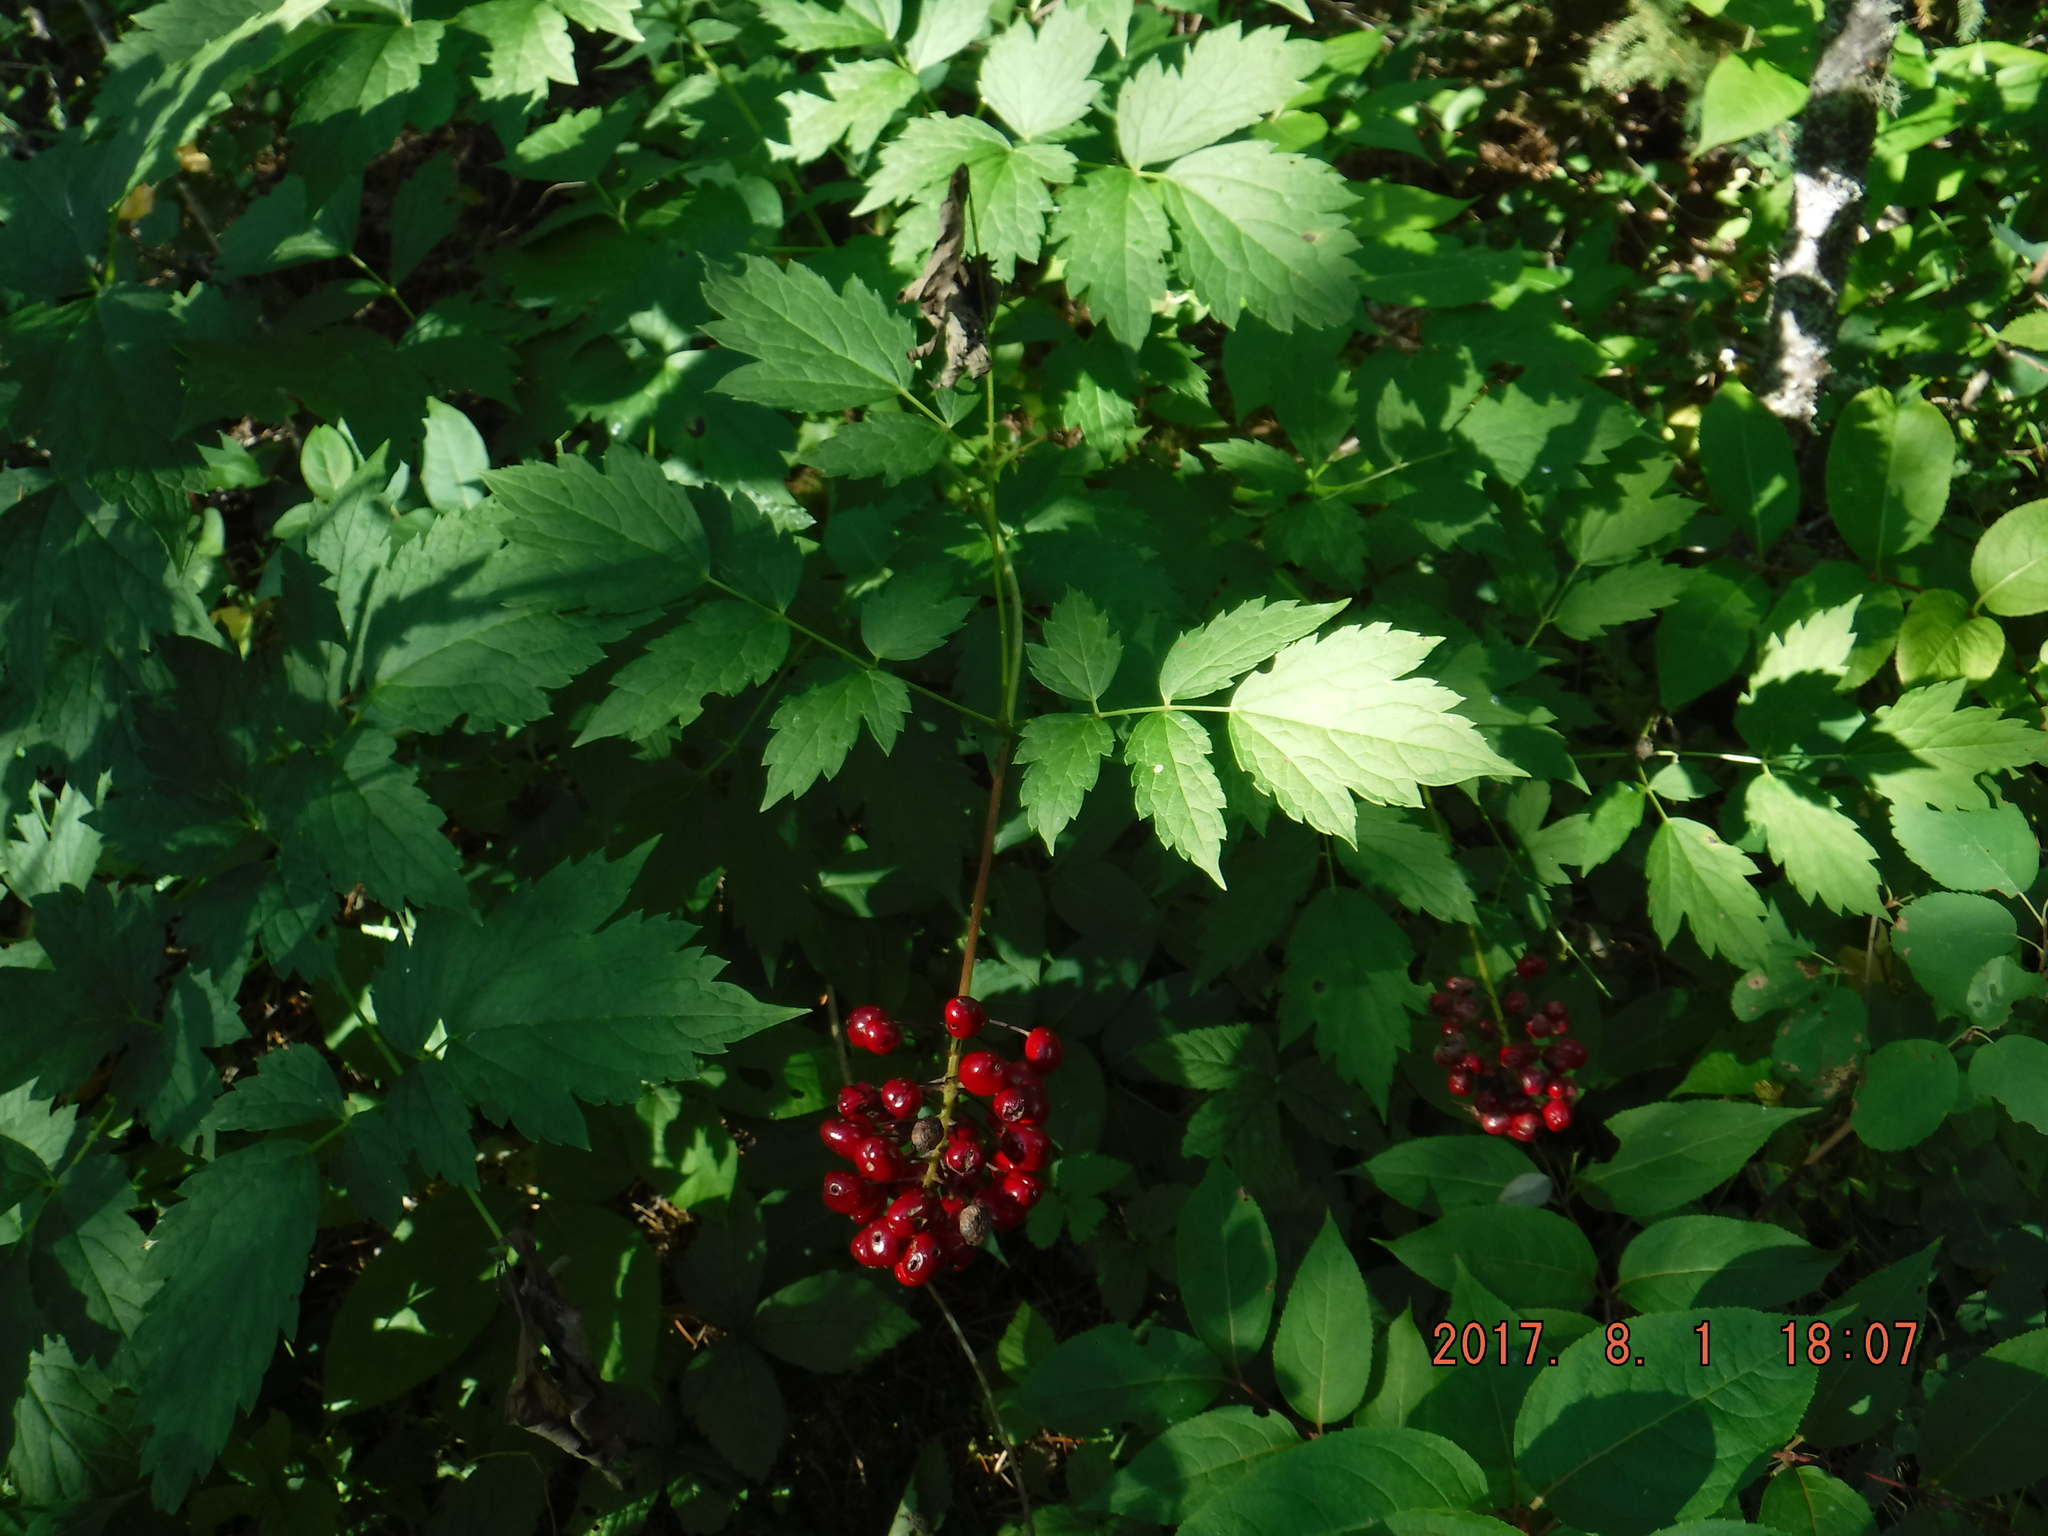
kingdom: Plantae
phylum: Tracheophyta
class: Magnoliopsida
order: Ranunculales
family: Ranunculaceae
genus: Actaea
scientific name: Actaea rubra
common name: Red baneberry
